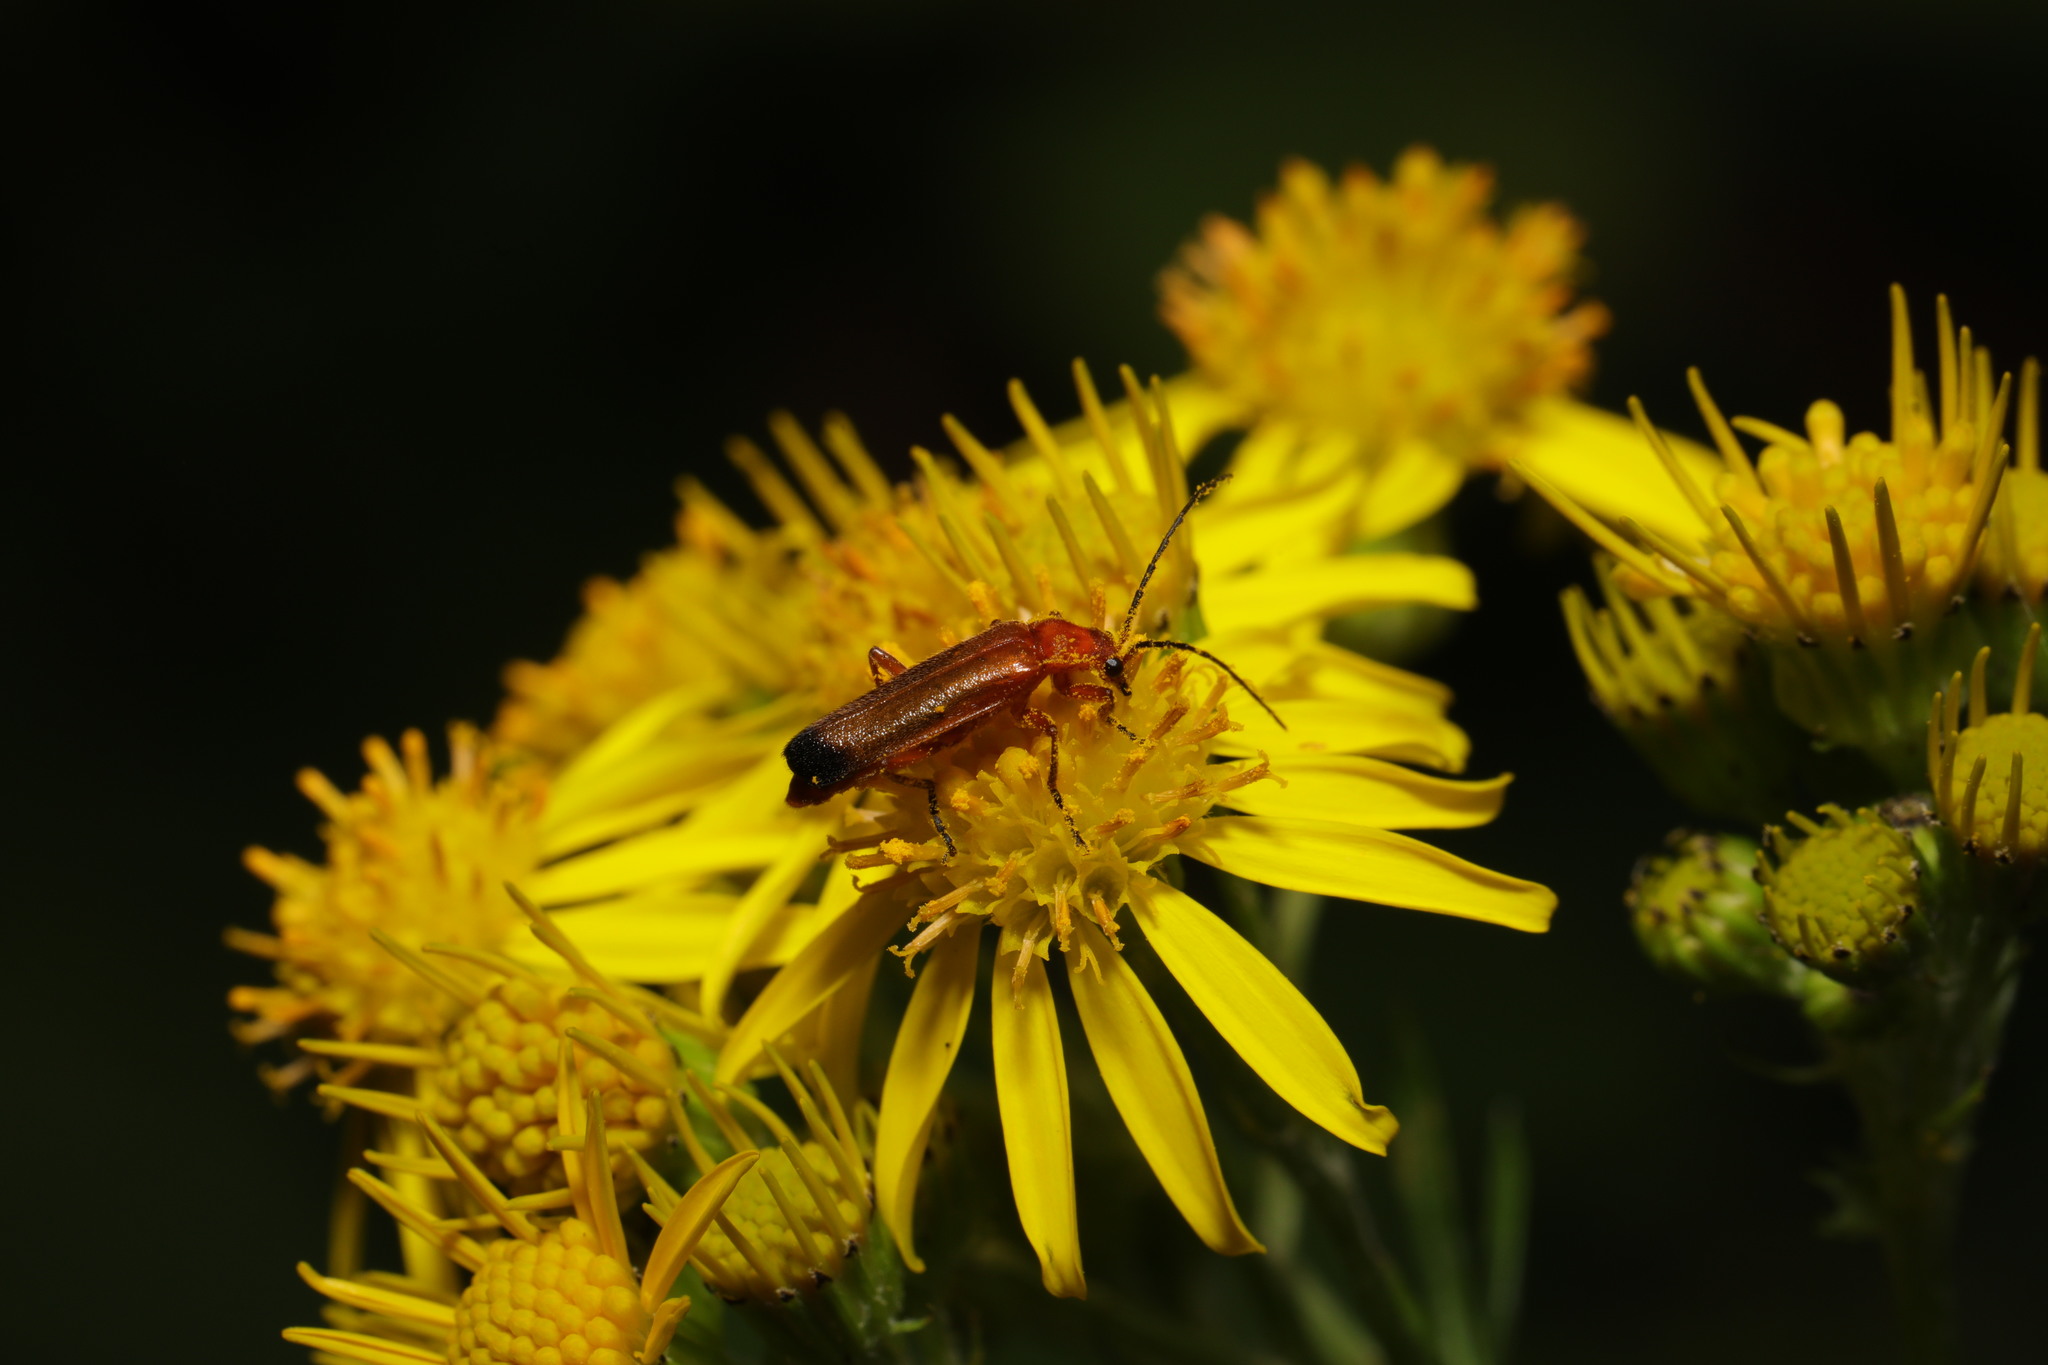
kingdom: Animalia
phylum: Arthropoda
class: Insecta
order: Coleoptera
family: Cantharidae
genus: Rhagonycha
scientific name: Rhagonycha fulva
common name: Common red soldier beetle
